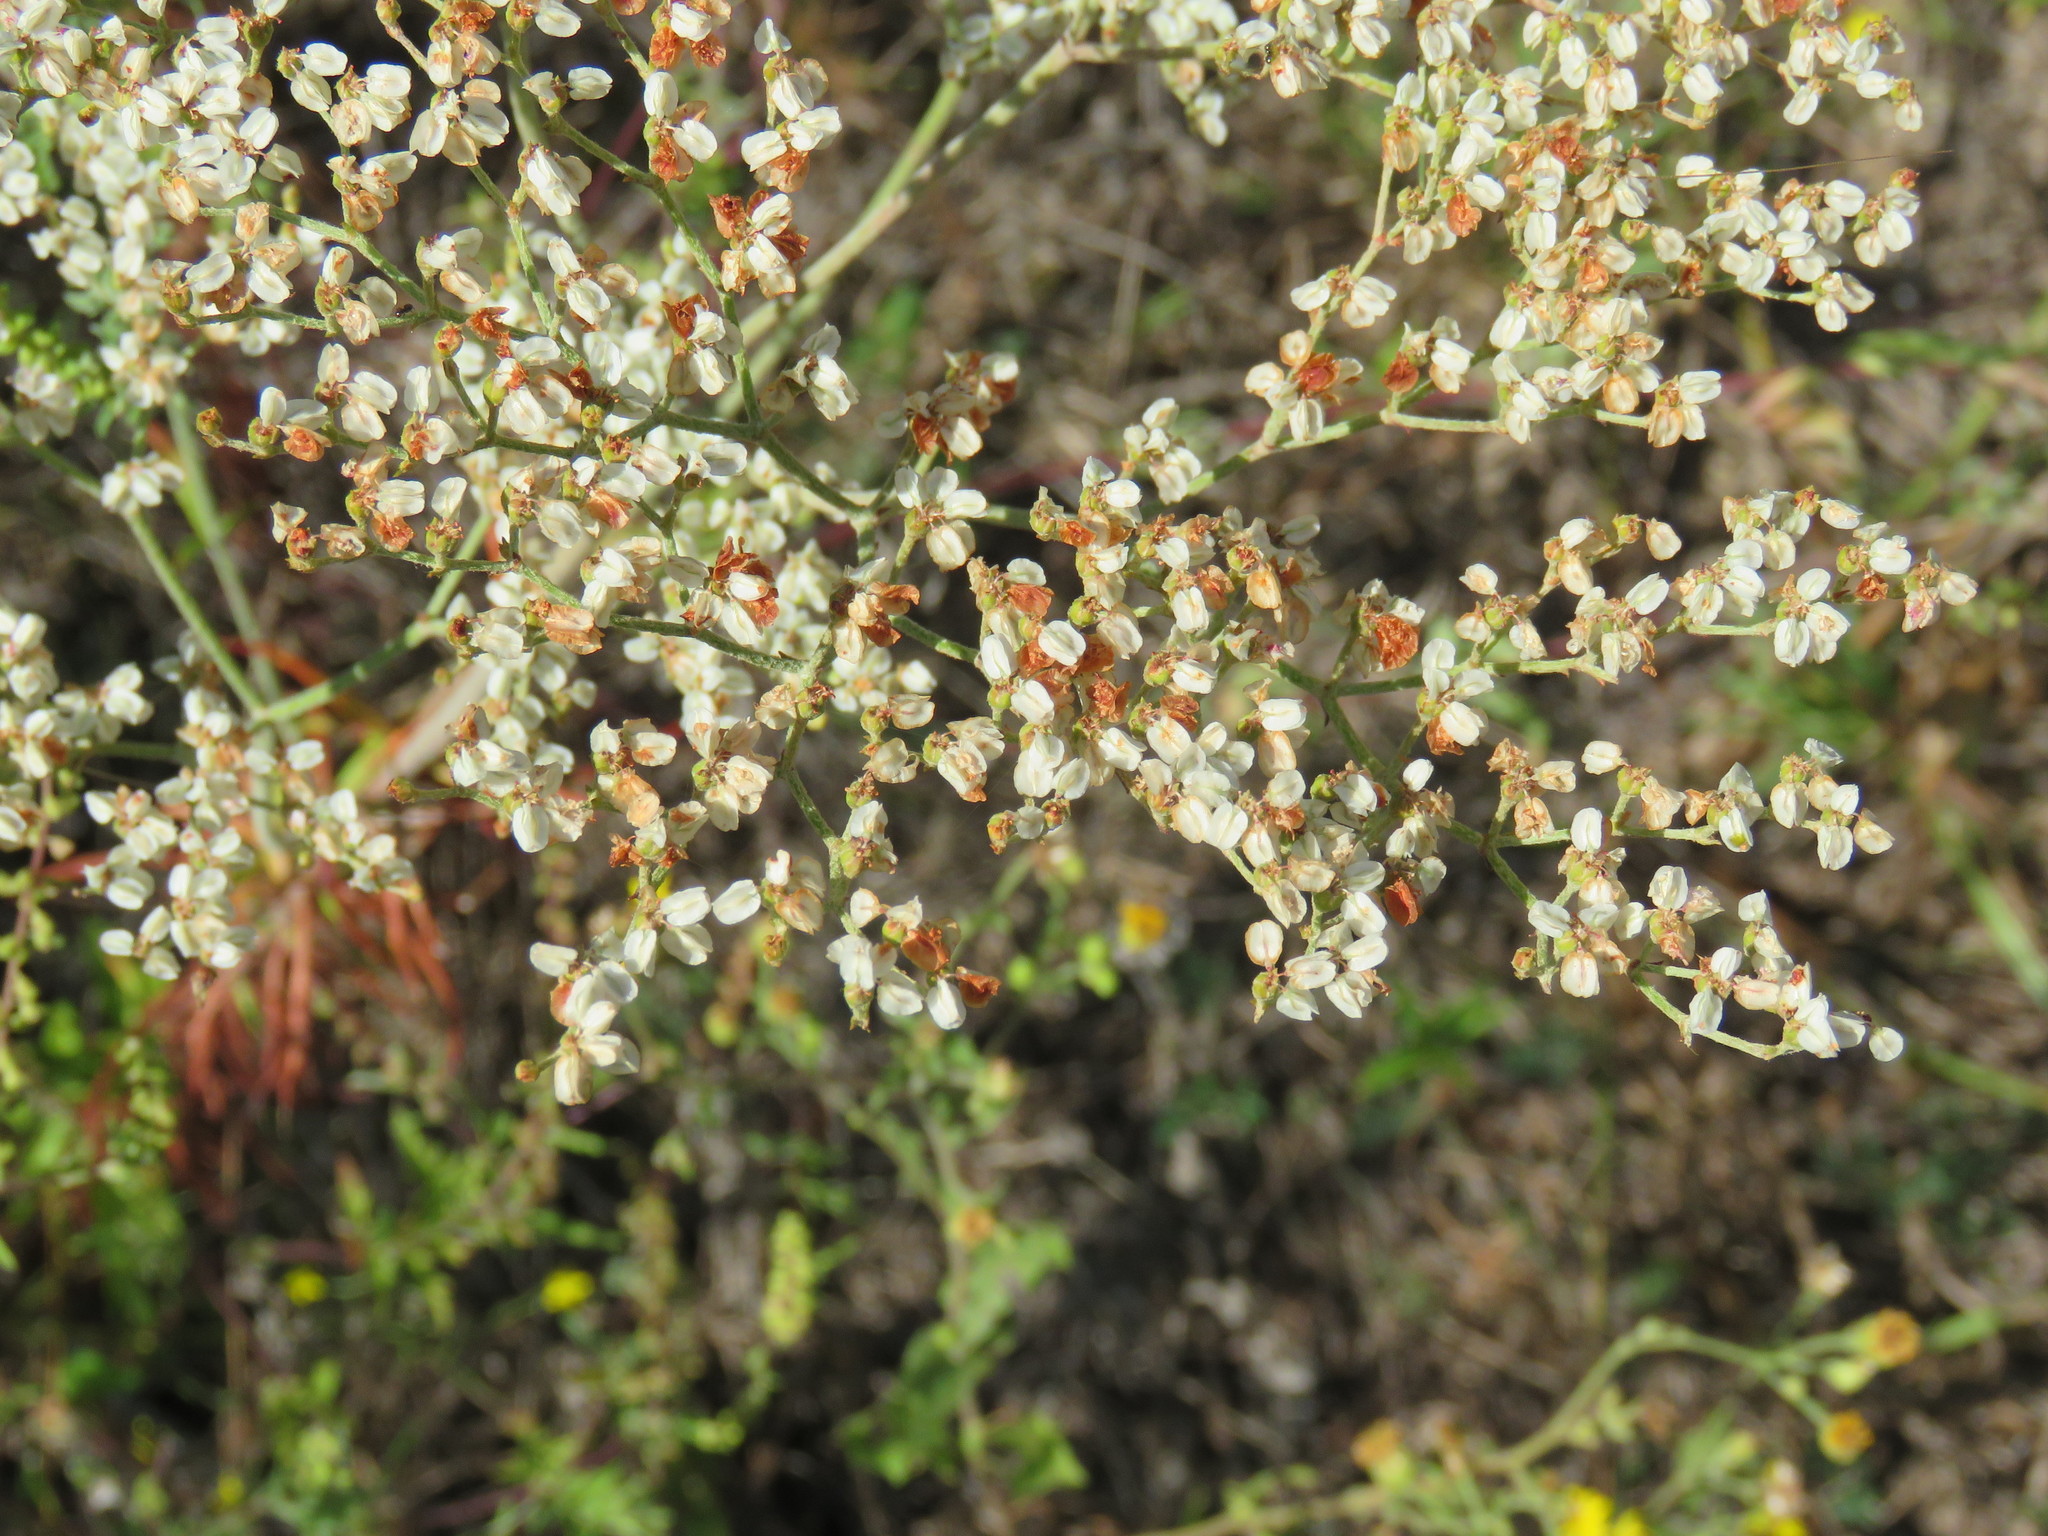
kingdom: Plantae
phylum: Tracheophyta
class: Magnoliopsida
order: Caryophyllales
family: Polygonaceae
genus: Eriogonum
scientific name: Eriogonum multiflorum
